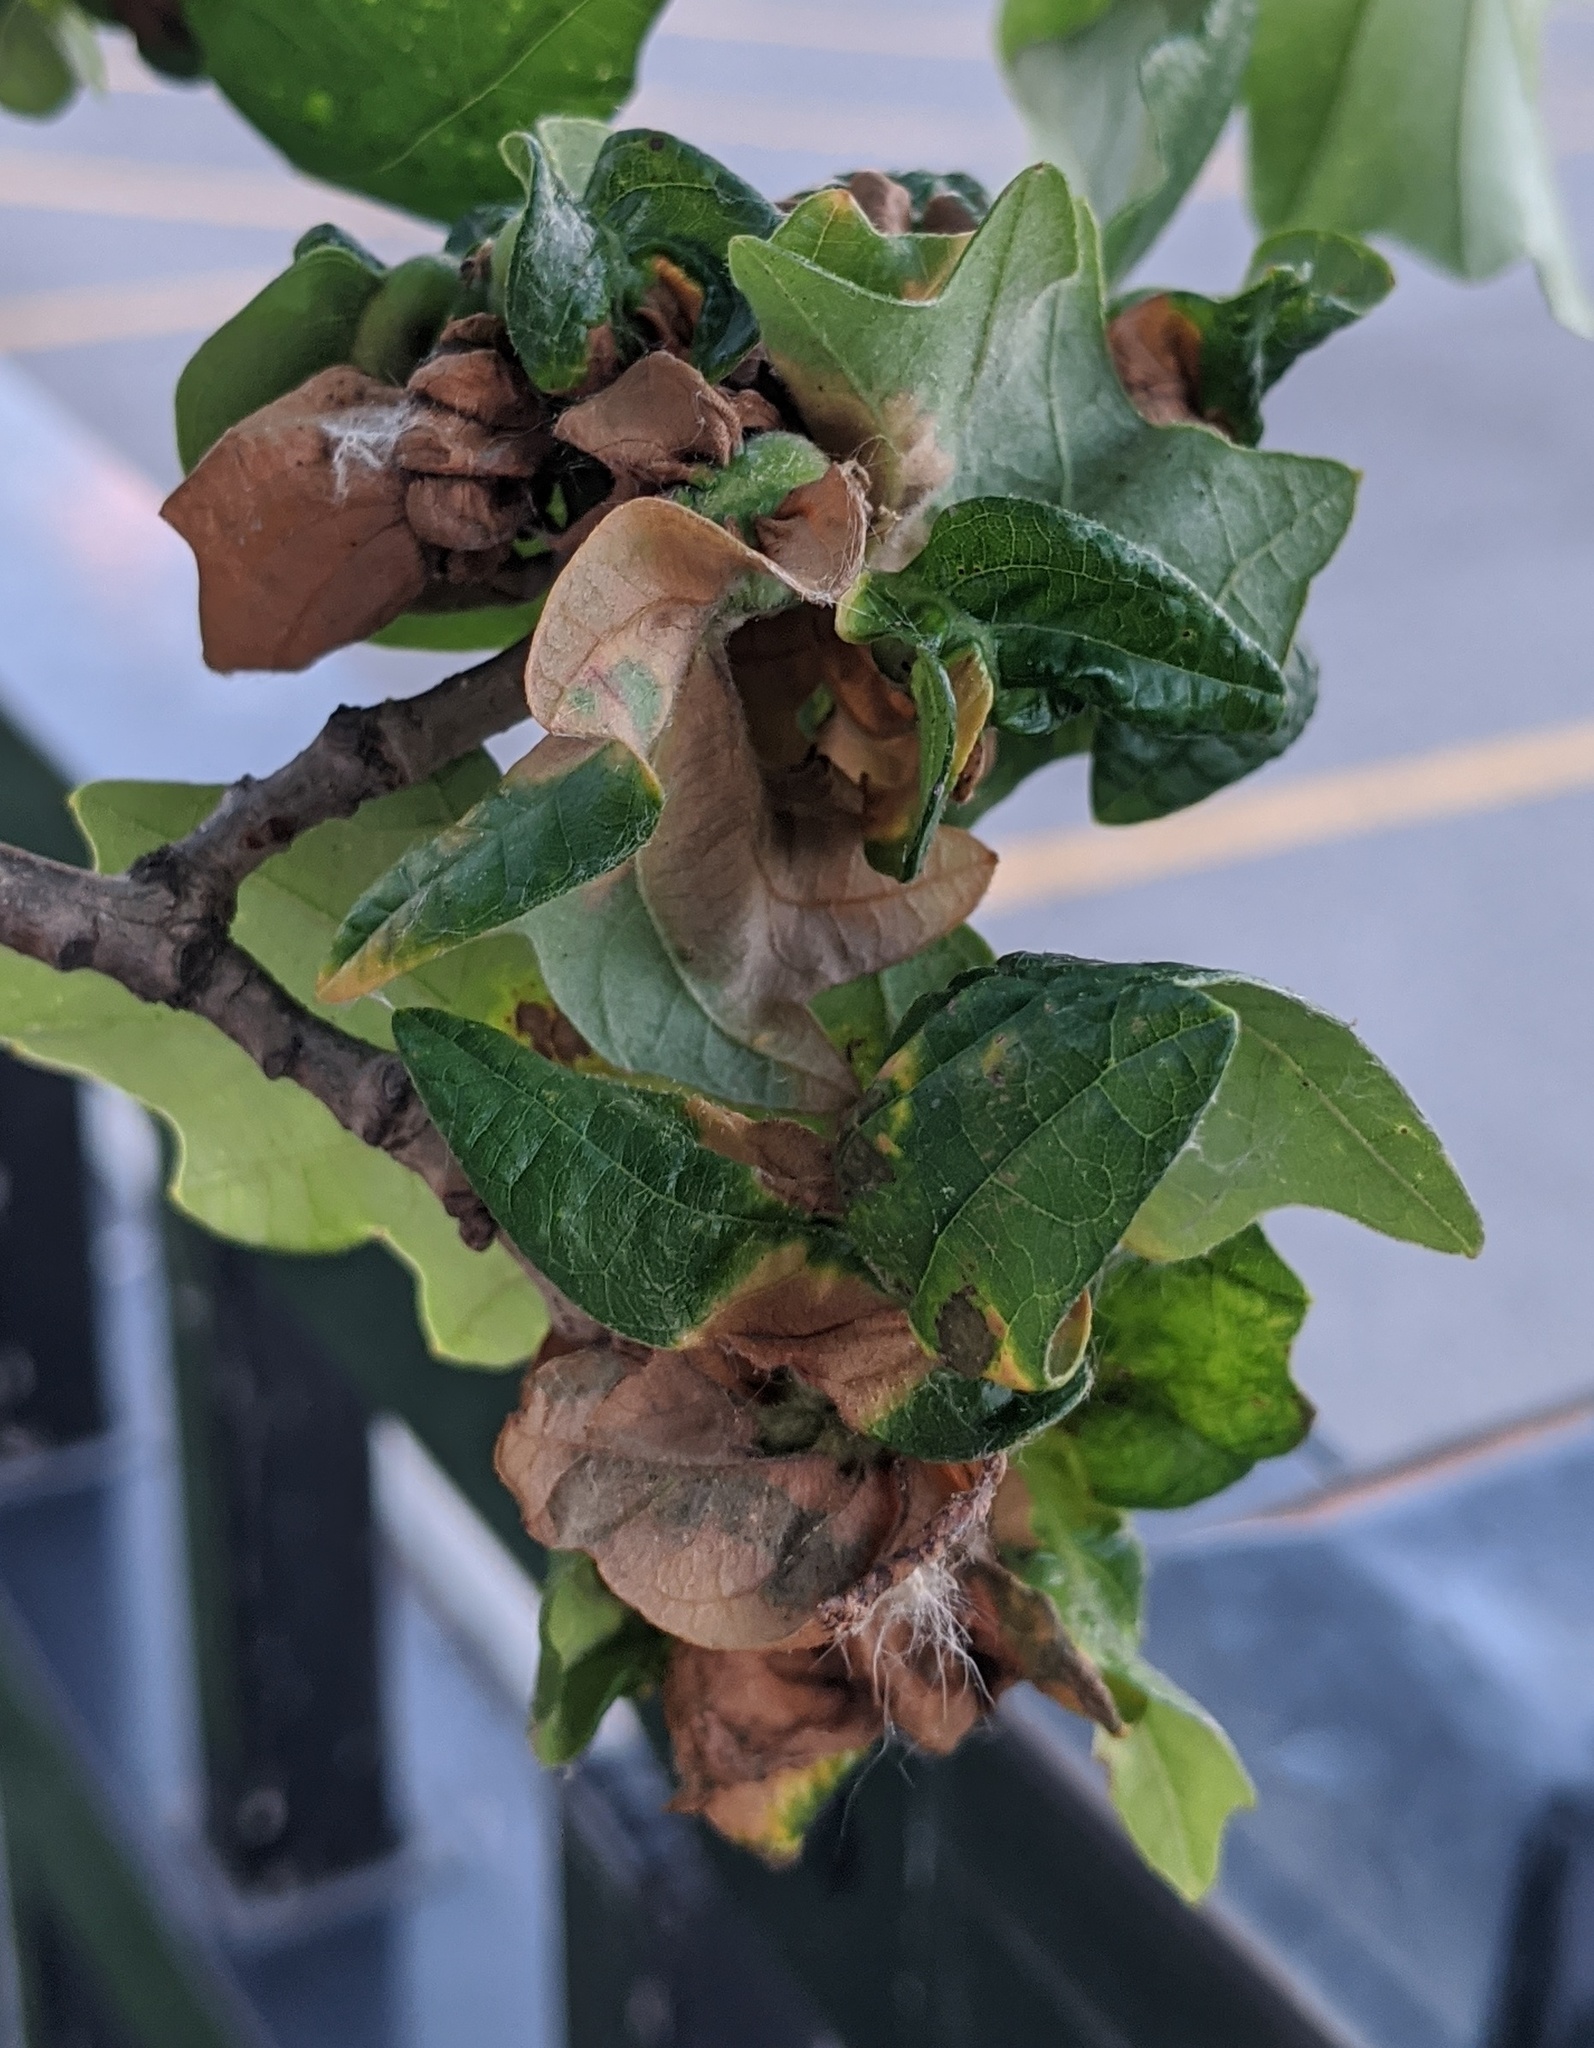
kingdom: Animalia
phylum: Arthropoda
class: Insecta
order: Hymenoptera
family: Cynipidae
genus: Neuroterus
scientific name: Neuroterus quercusbaccarum
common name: Common spangle gall
